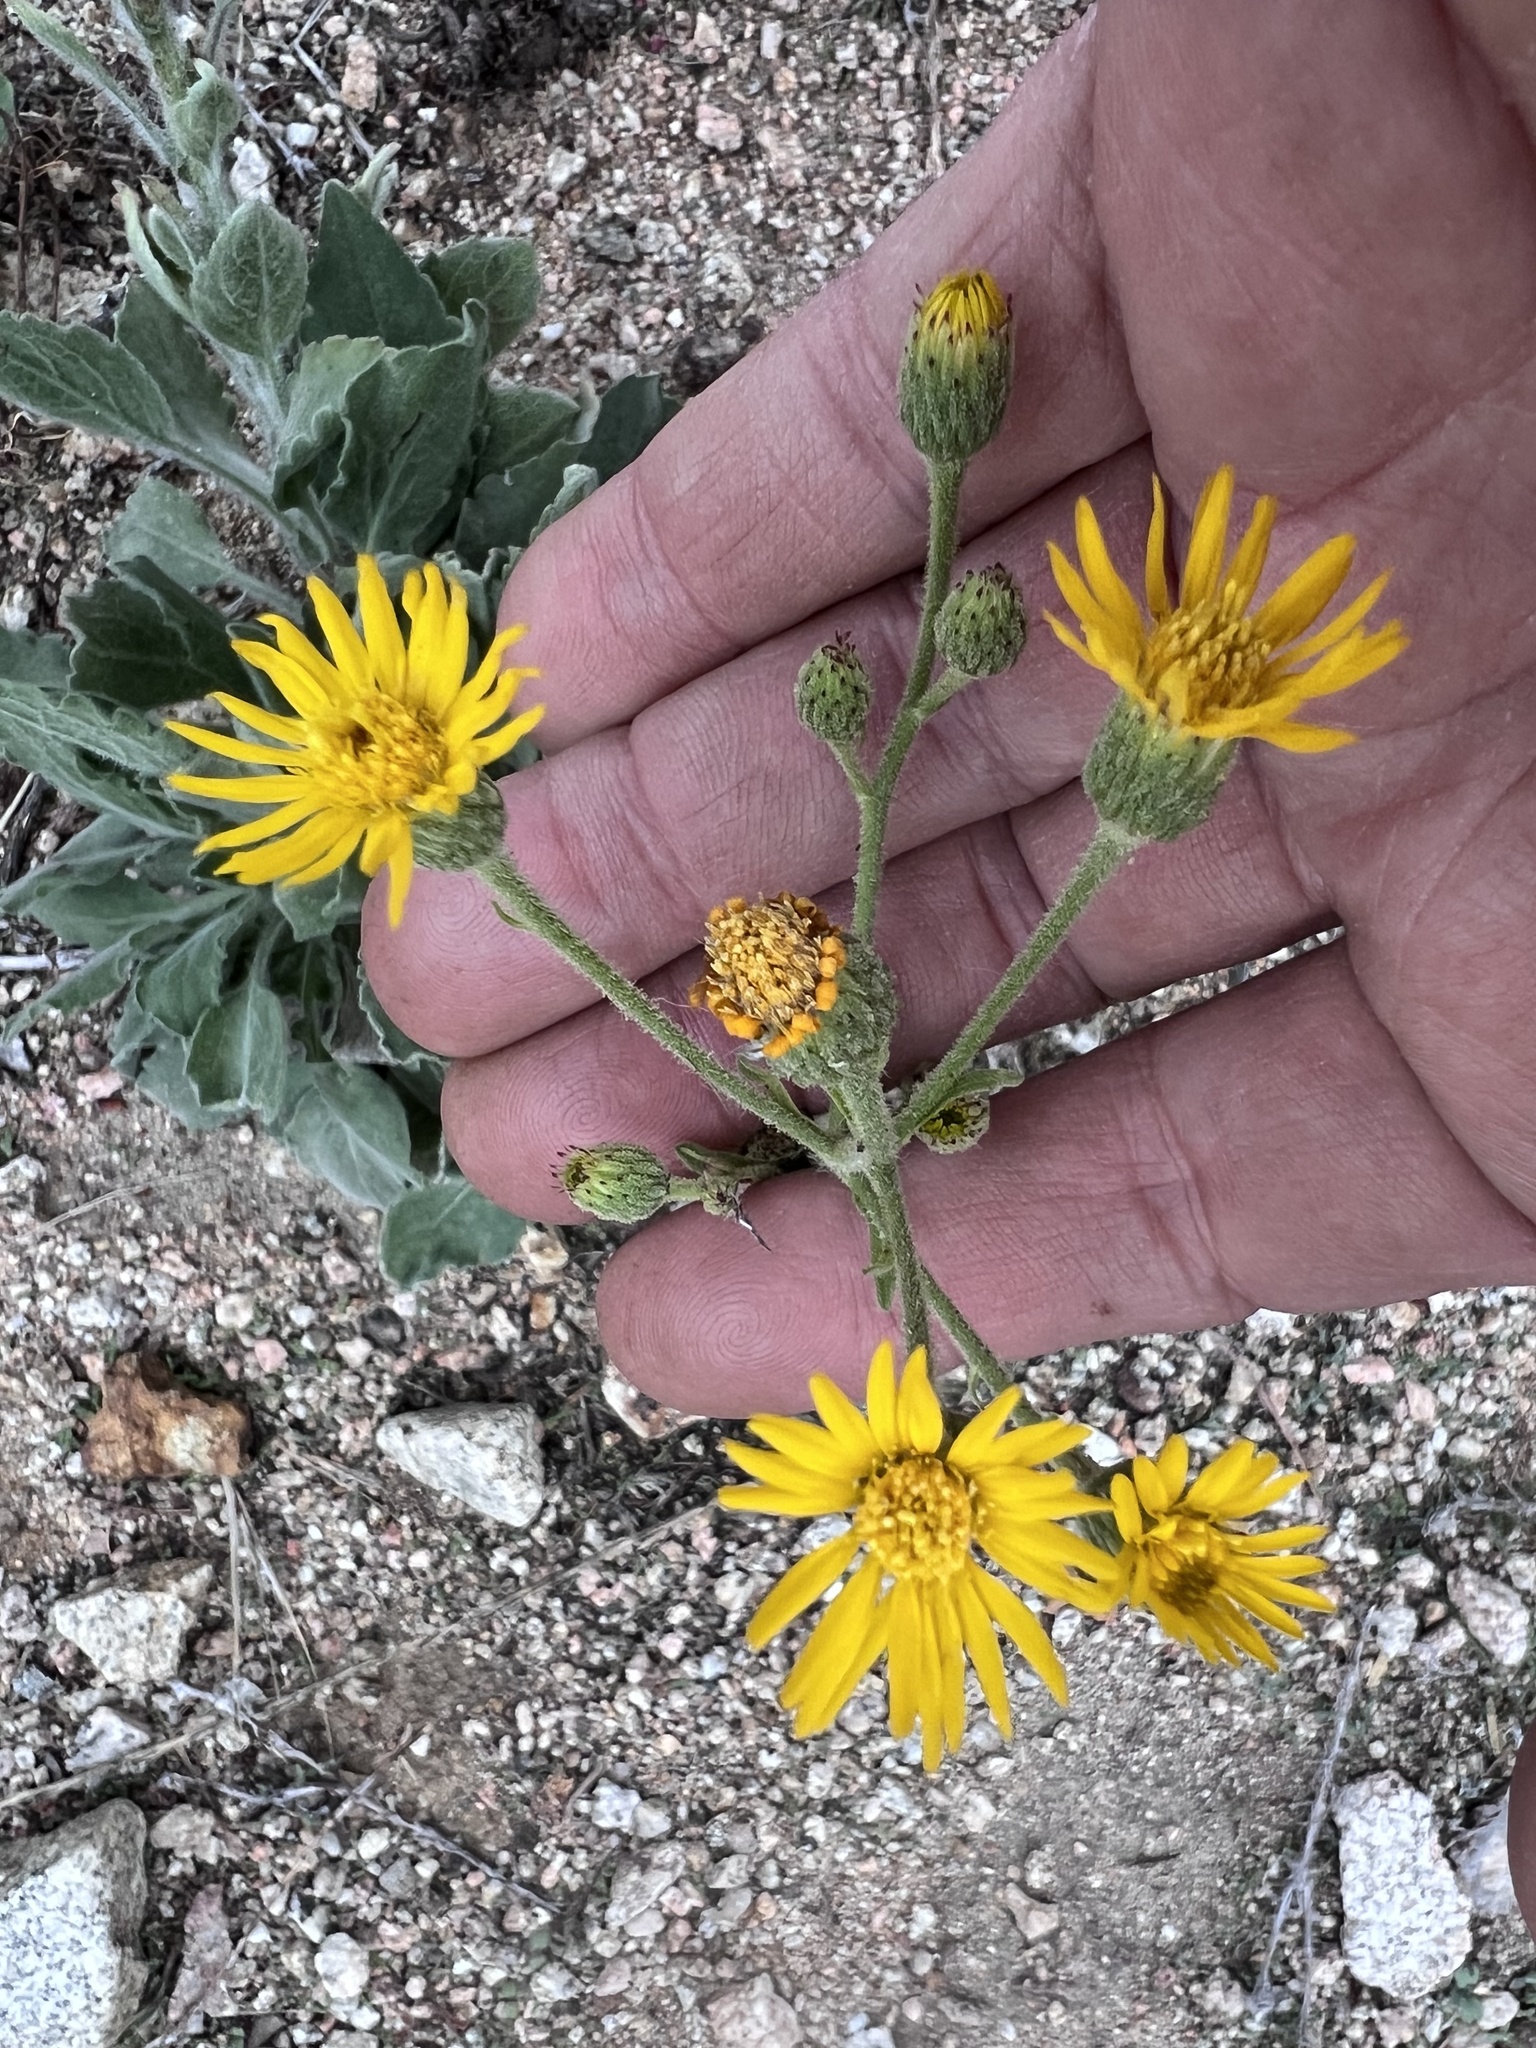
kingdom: Plantae
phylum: Tracheophyta
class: Magnoliopsida
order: Asterales
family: Asteraceae
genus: Heterotheca
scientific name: Heterotheca grandiflora
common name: Telegraphweed
